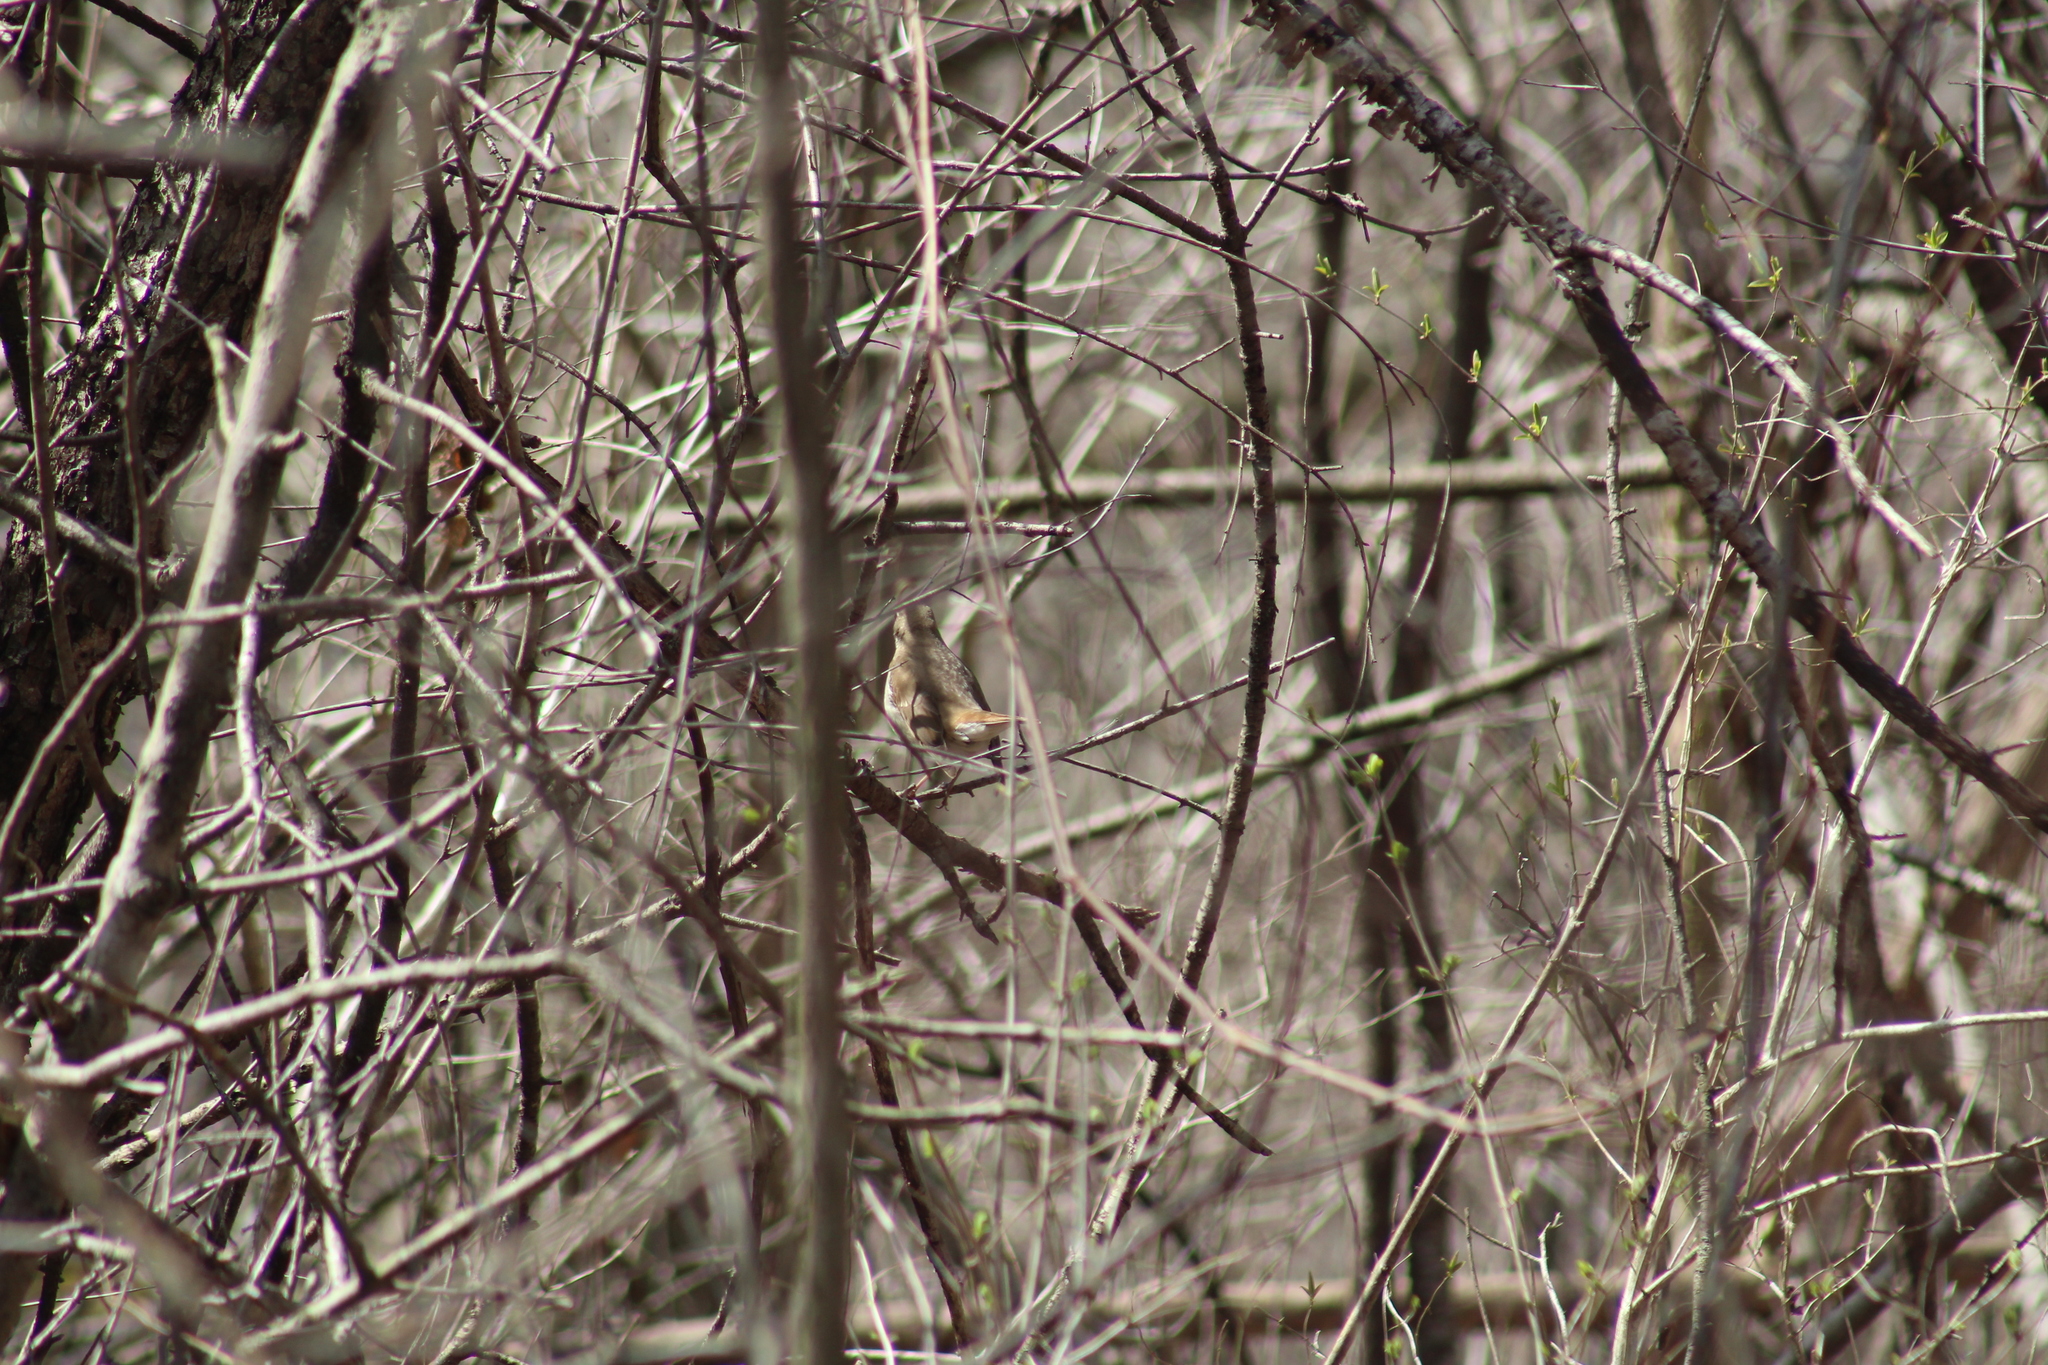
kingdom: Animalia
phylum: Chordata
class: Aves
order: Passeriformes
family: Turdidae
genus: Catharus
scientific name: Catharus guttatus
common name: Hermit thrush
